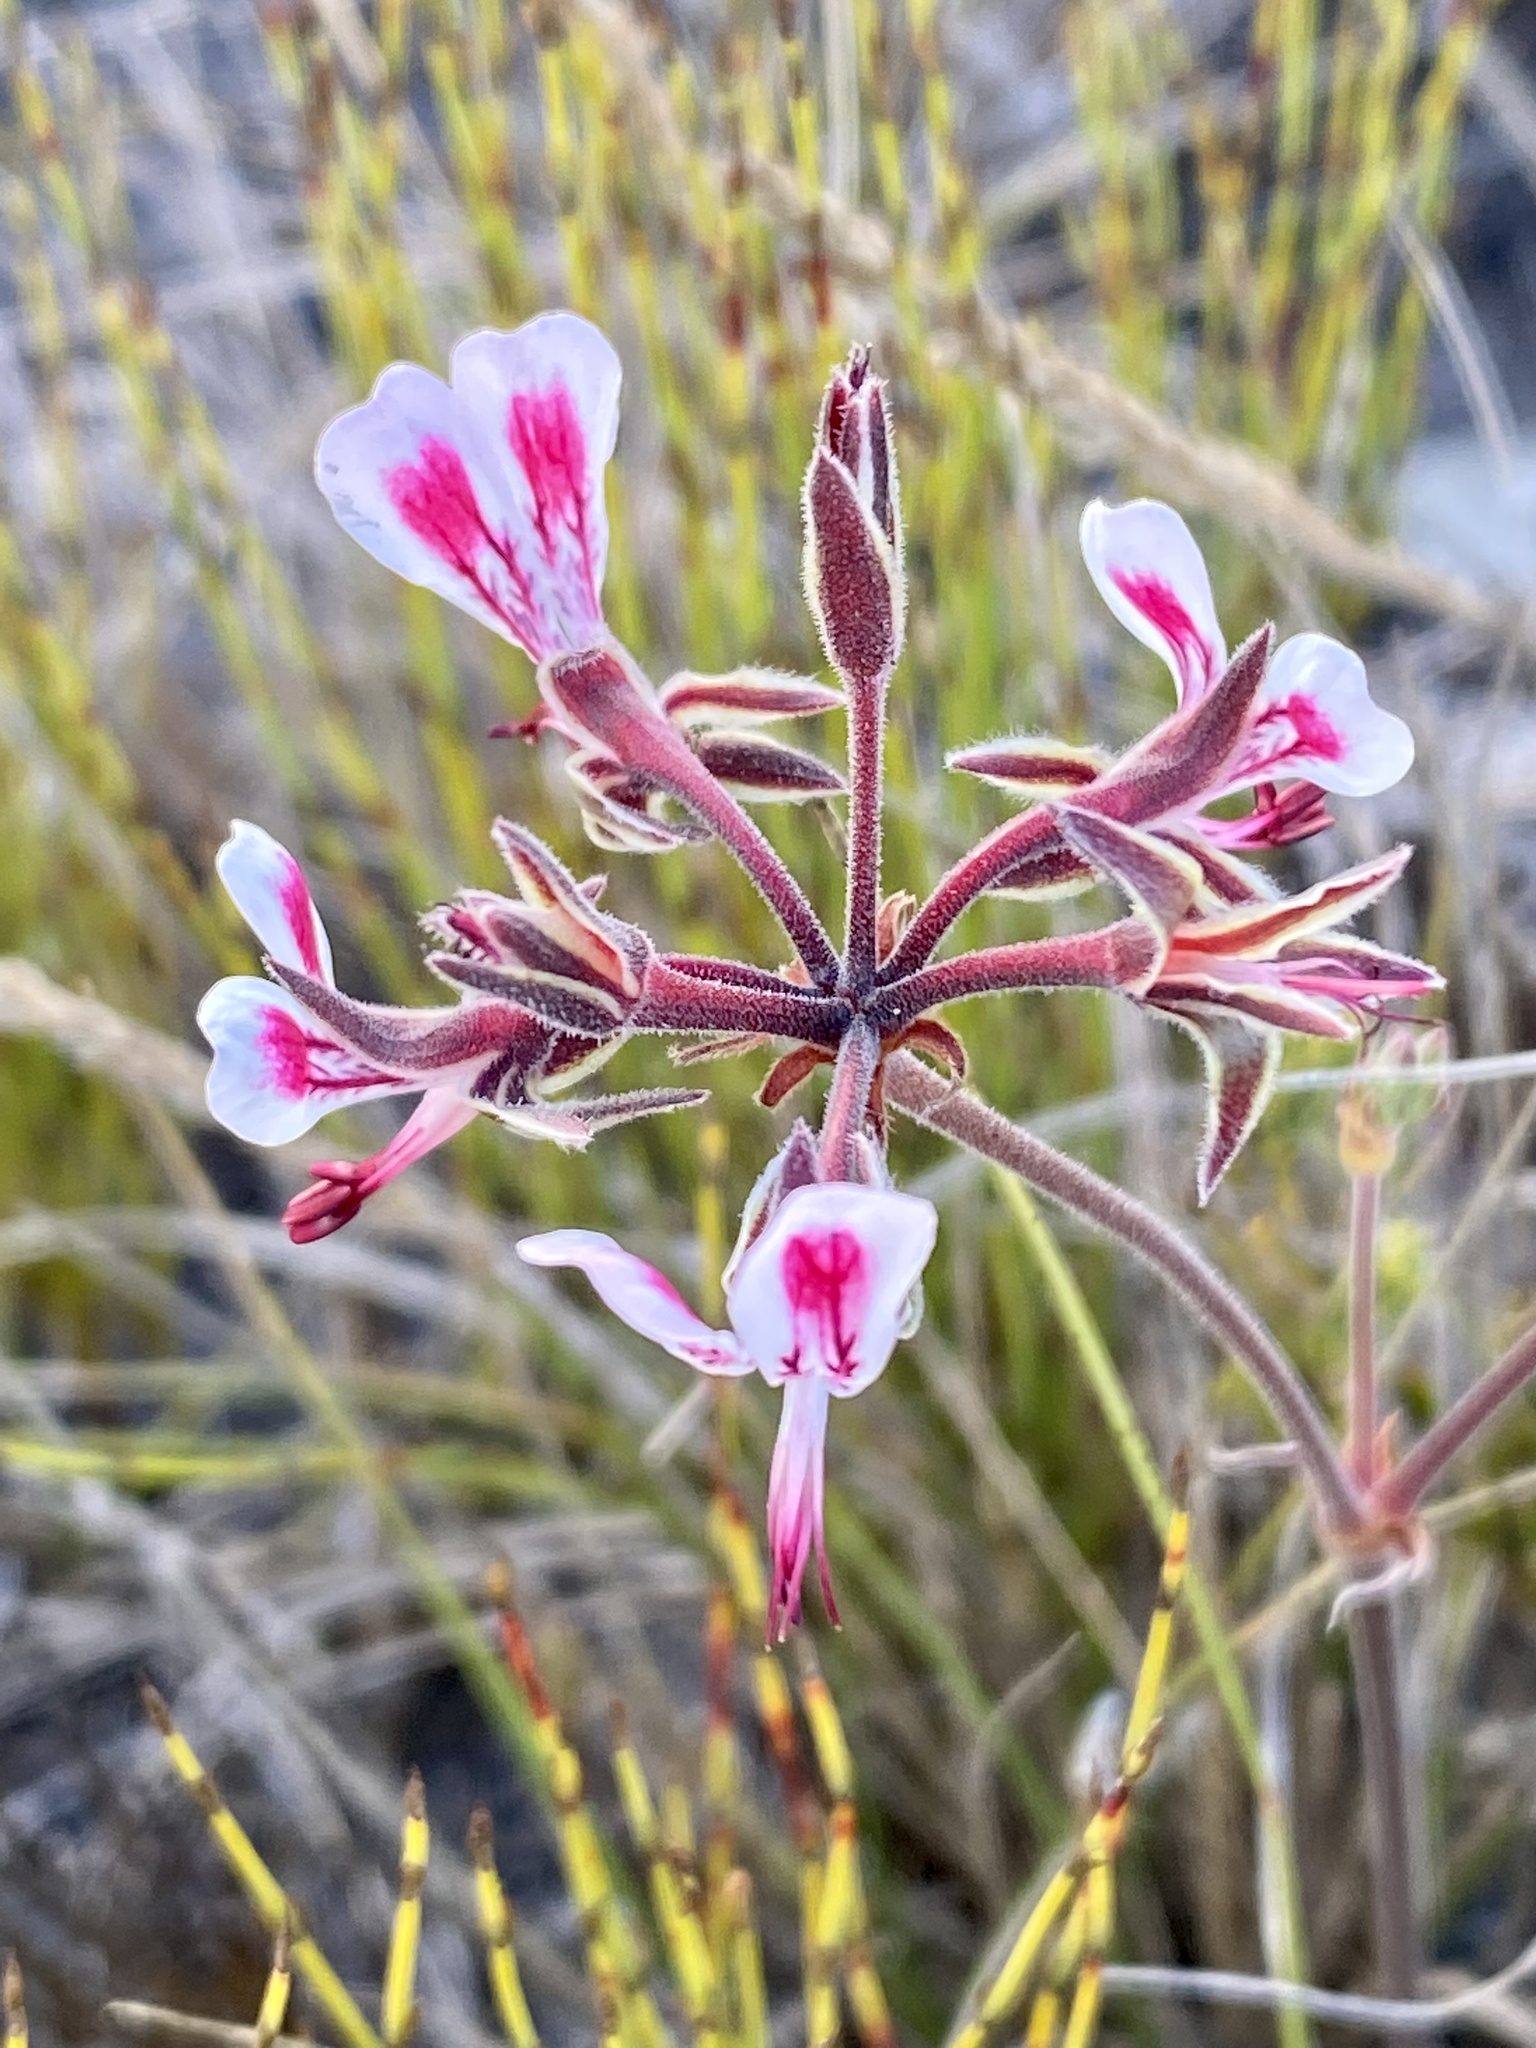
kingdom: Plantae
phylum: Tracheophyta
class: Magnoliopsida
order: Geraniales
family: Geraniaceae
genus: Pelargonium
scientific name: Pelargonium dipetalum
